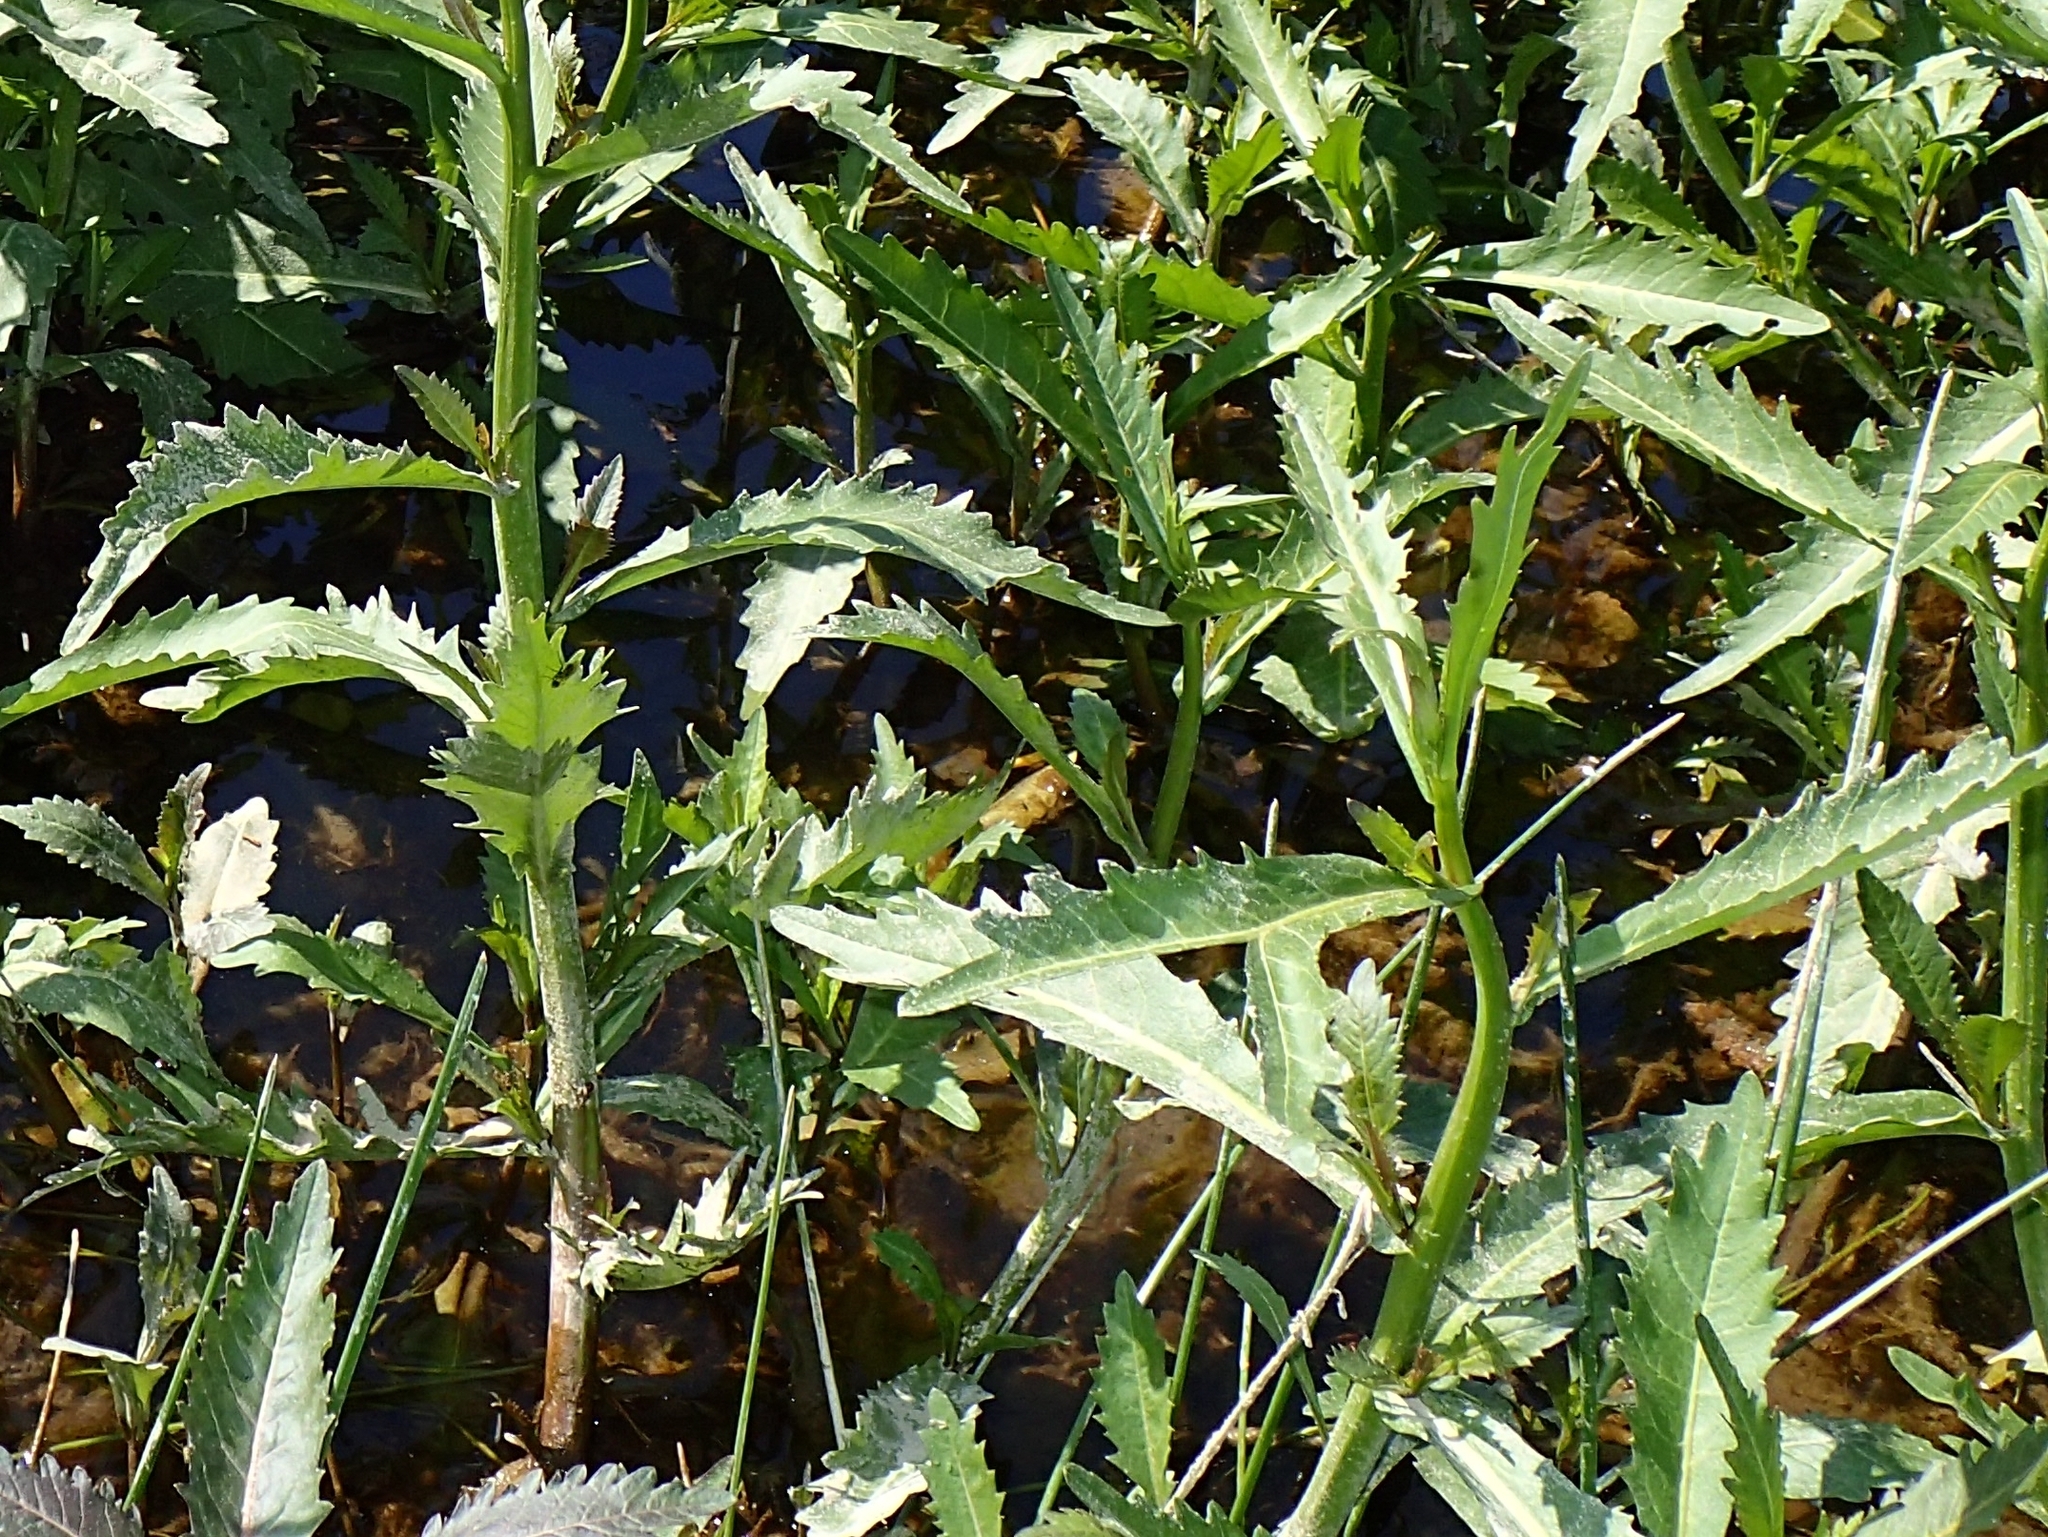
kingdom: Plantae
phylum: Tracheophyta
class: Magnoliopsida
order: Brassicales
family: Brassicaceae
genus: Rorippa
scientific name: Rorippa amphibia
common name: Great yellow-cress
